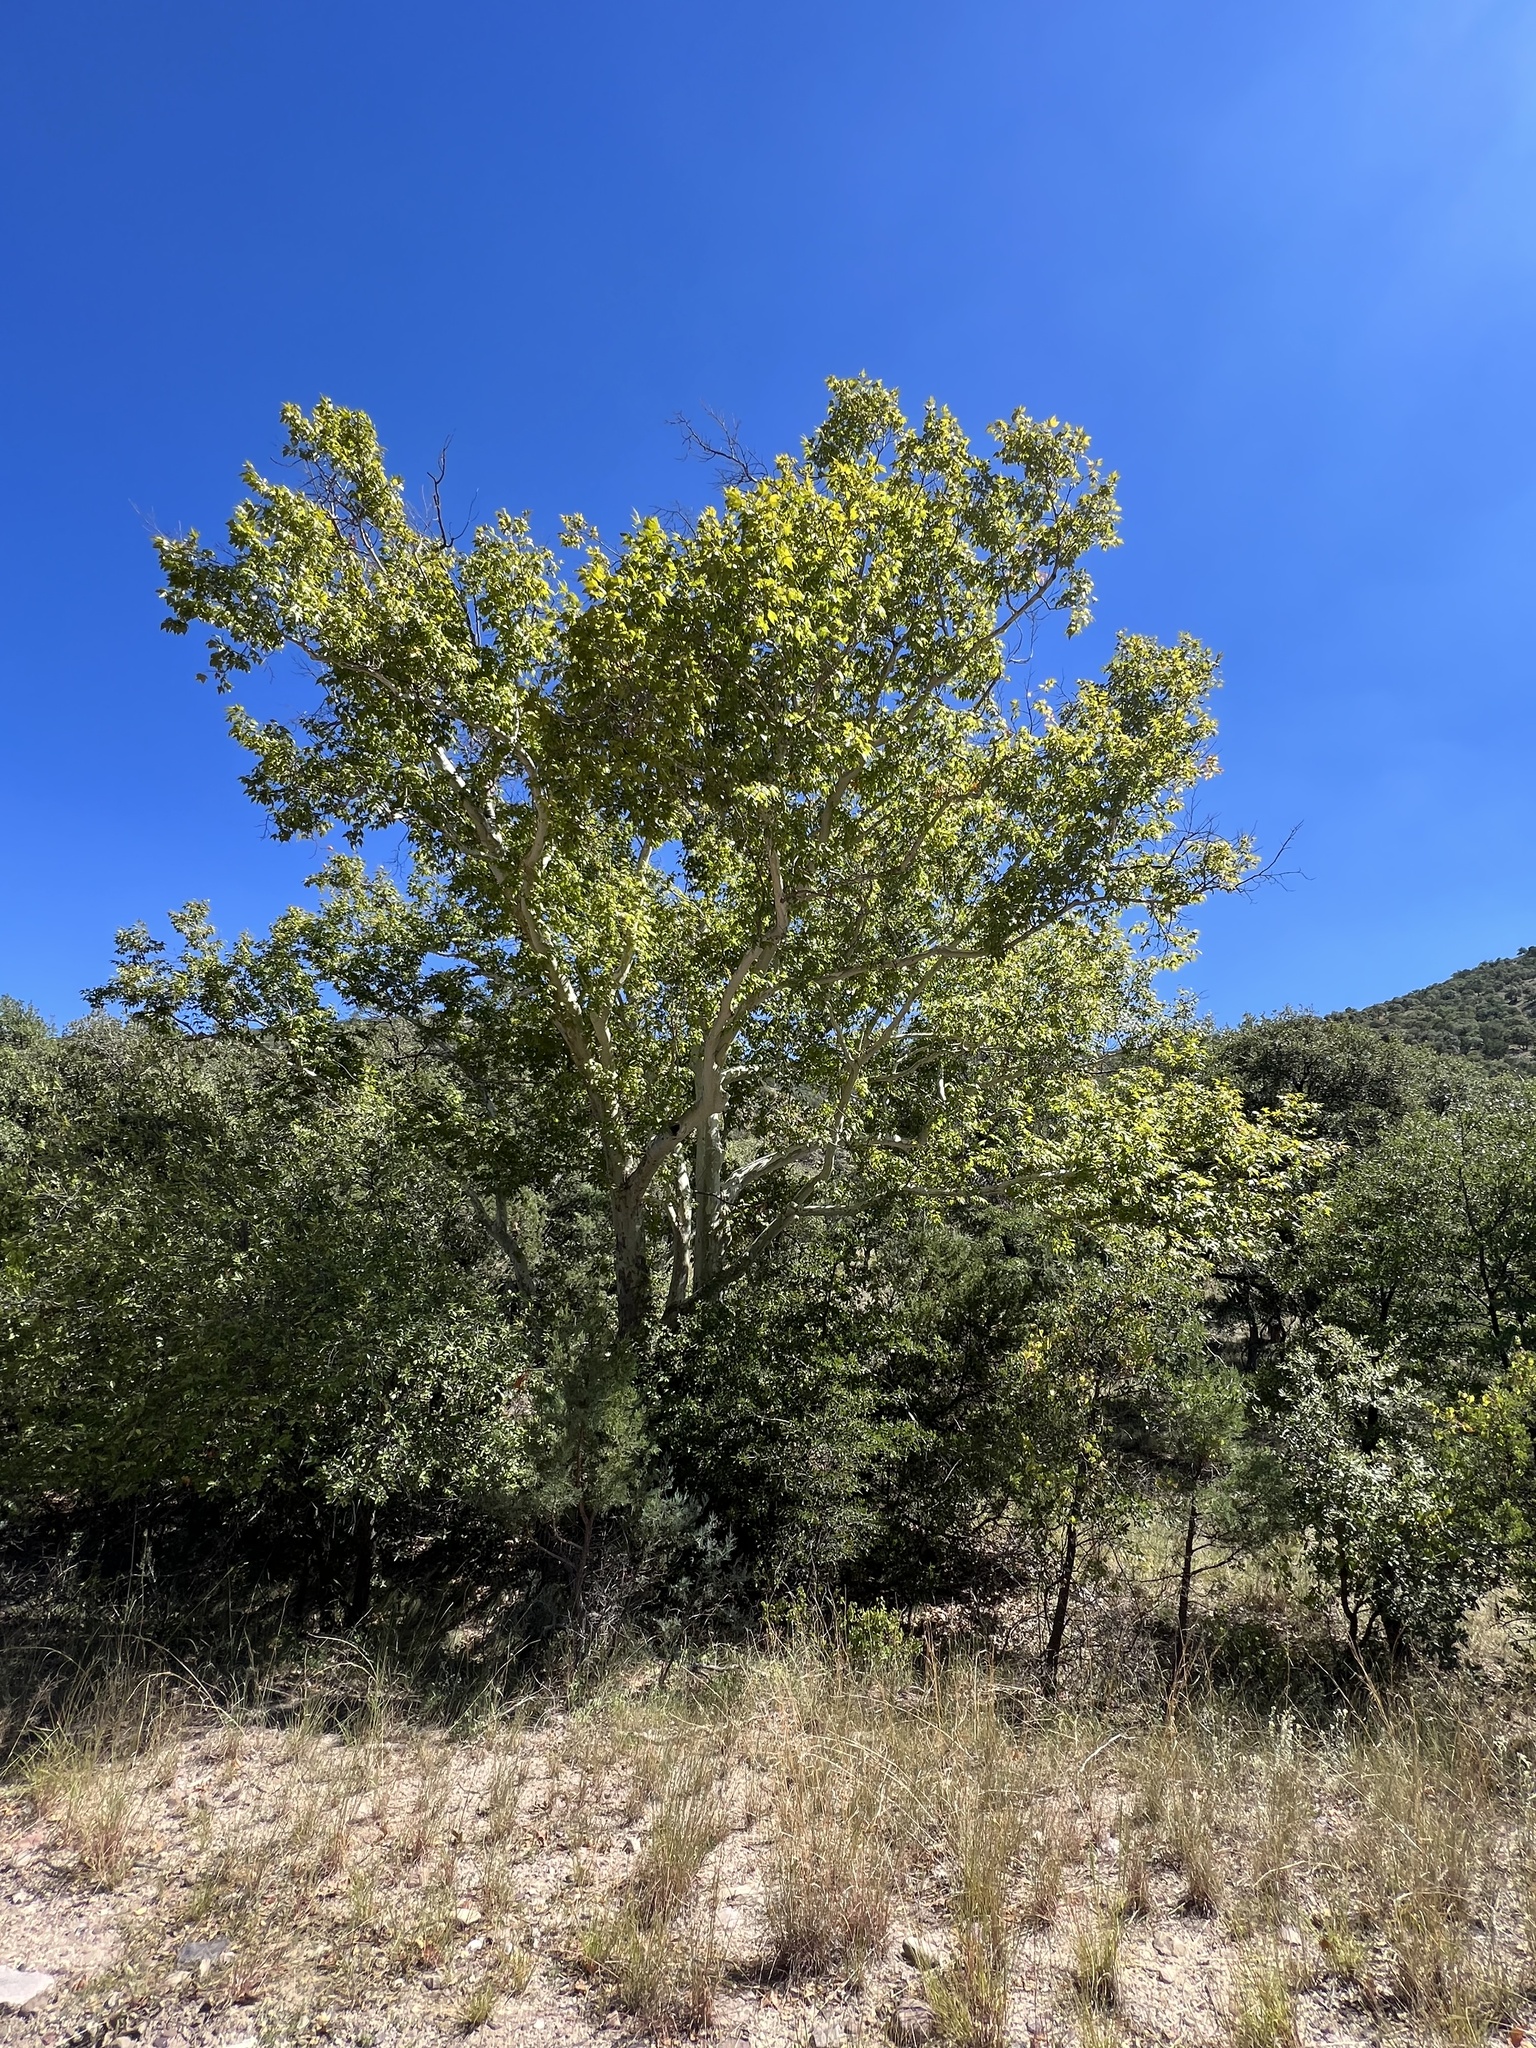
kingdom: Plantae
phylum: Tracheophyta
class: Magnoliopsida
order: Proteales
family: Platanaceae
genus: Platanus
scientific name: Platanus wrightii
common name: Arizona sycamore
